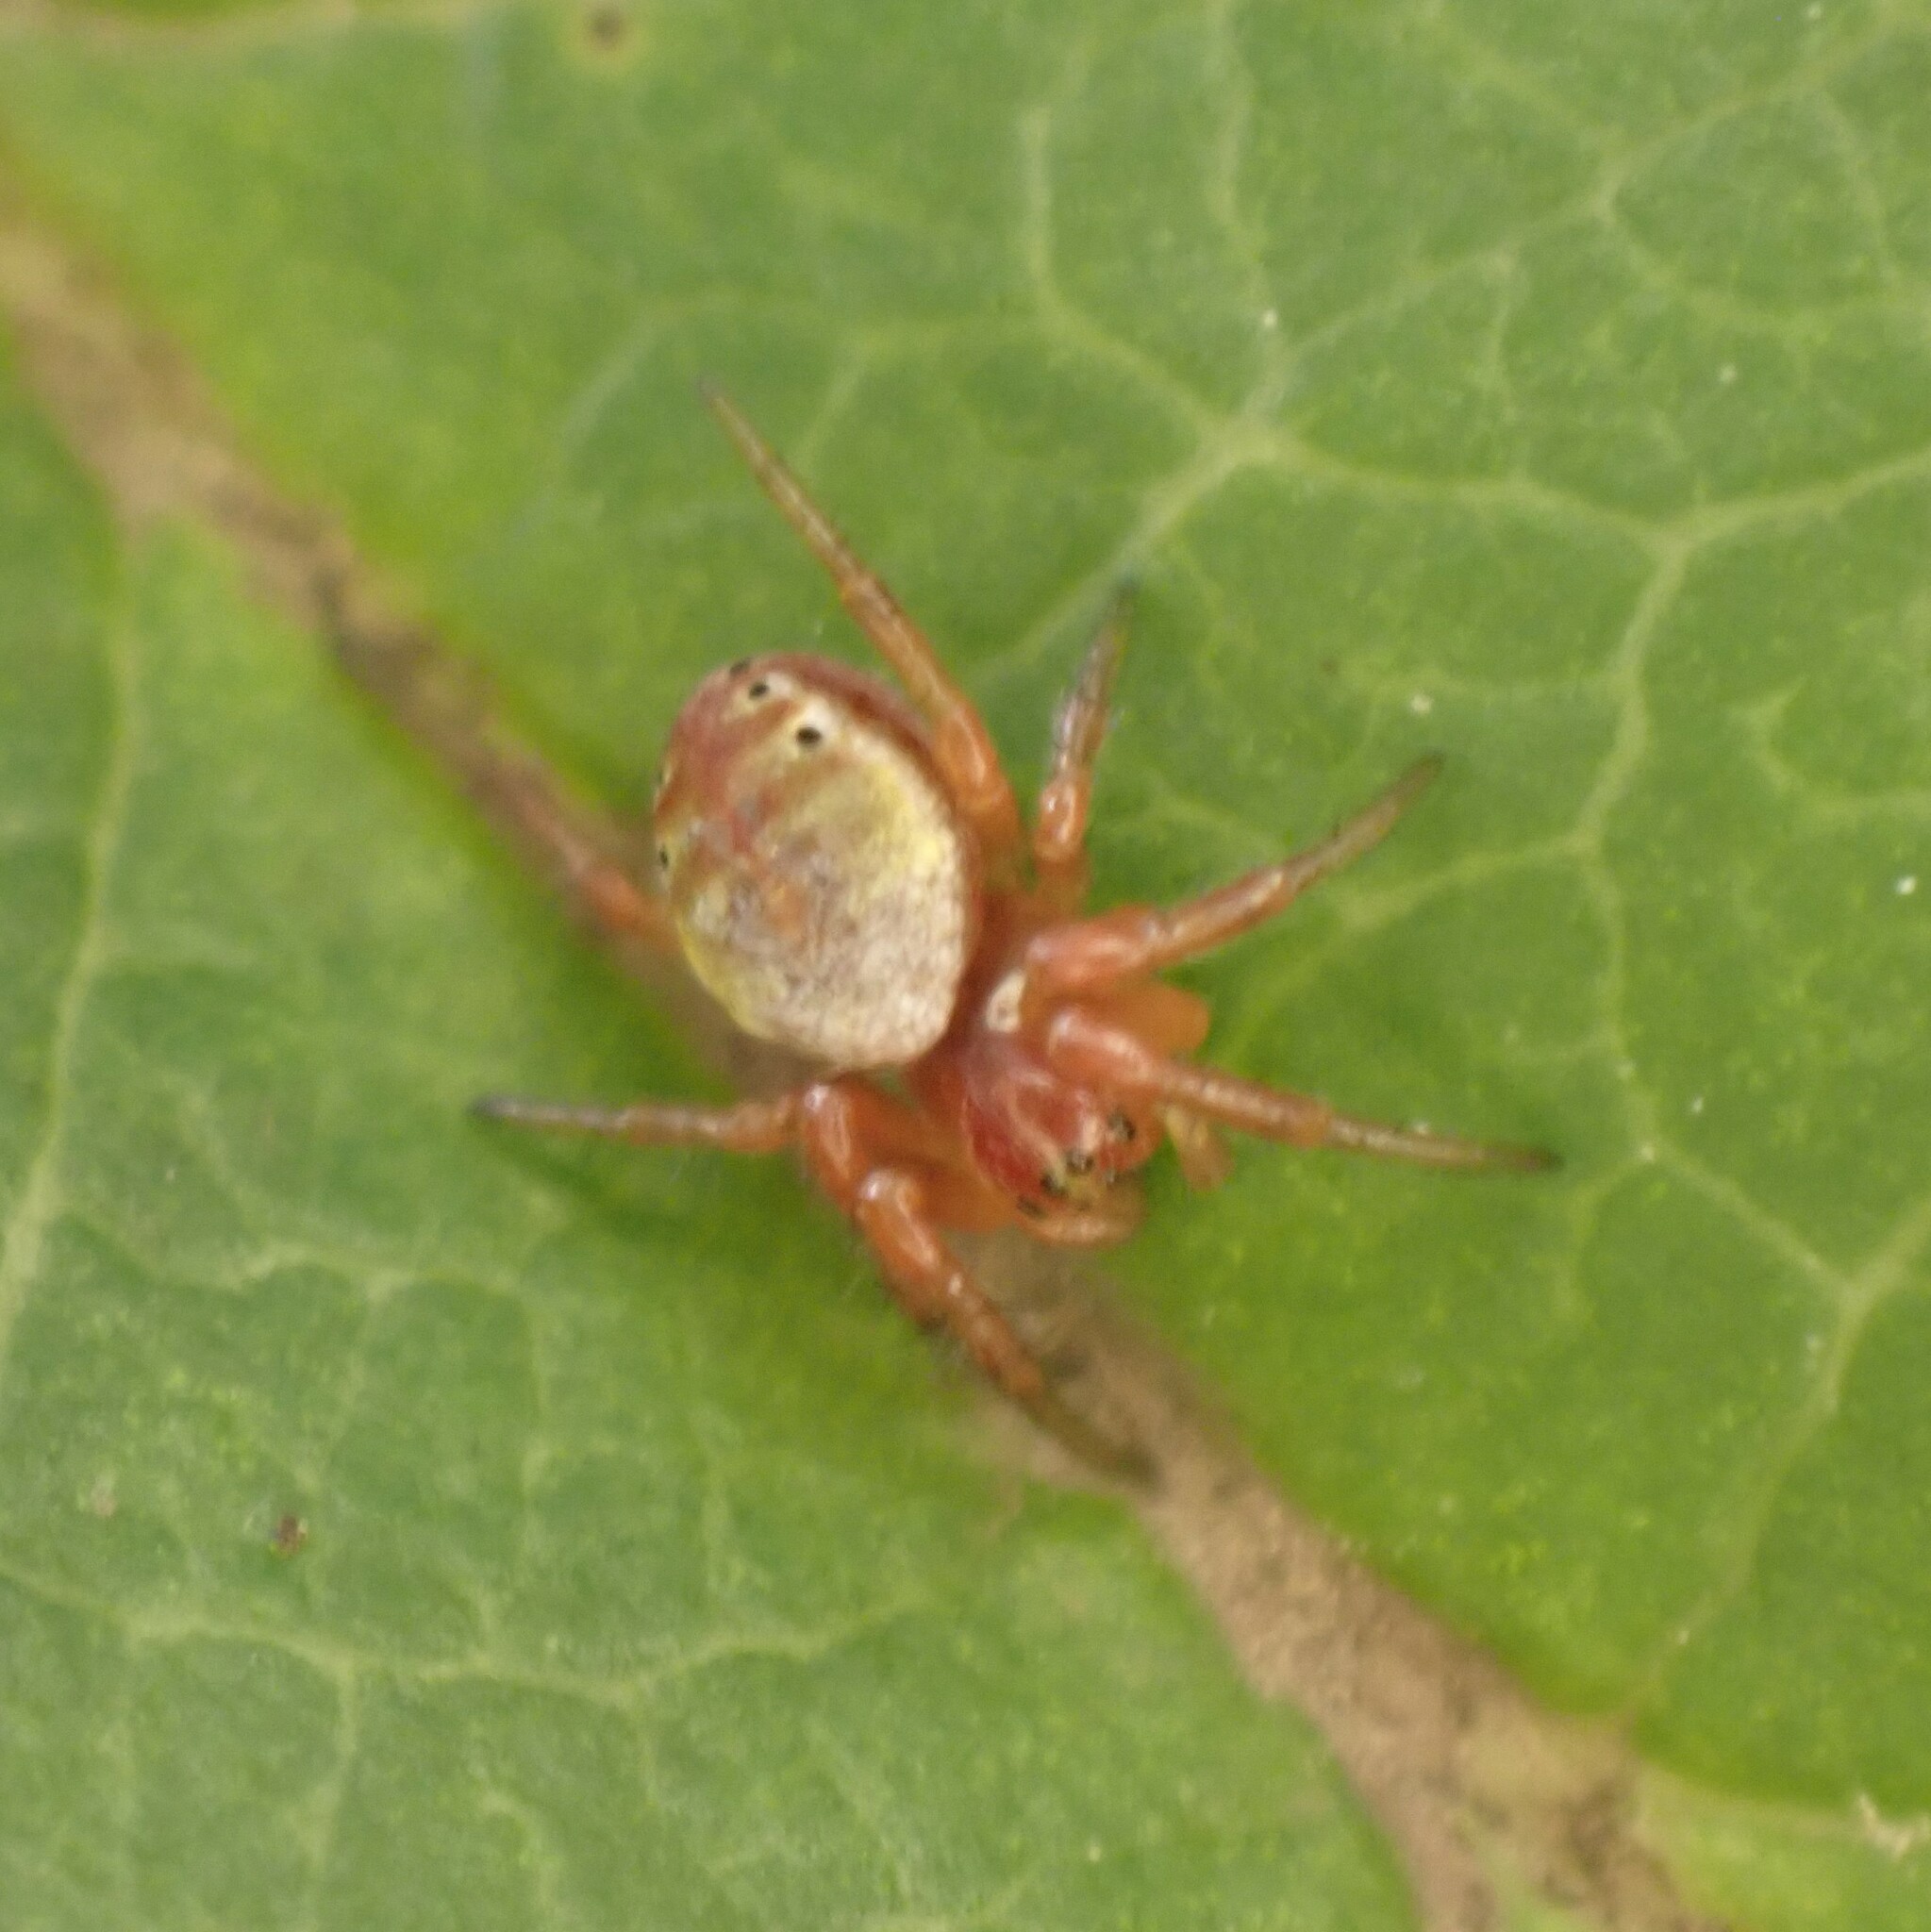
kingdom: Animalia
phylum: Arthropoda
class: Arachnida
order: Araneae
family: Araneidae
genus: Araniella
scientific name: Araniella displicata
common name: Sixspotted orb weaver
